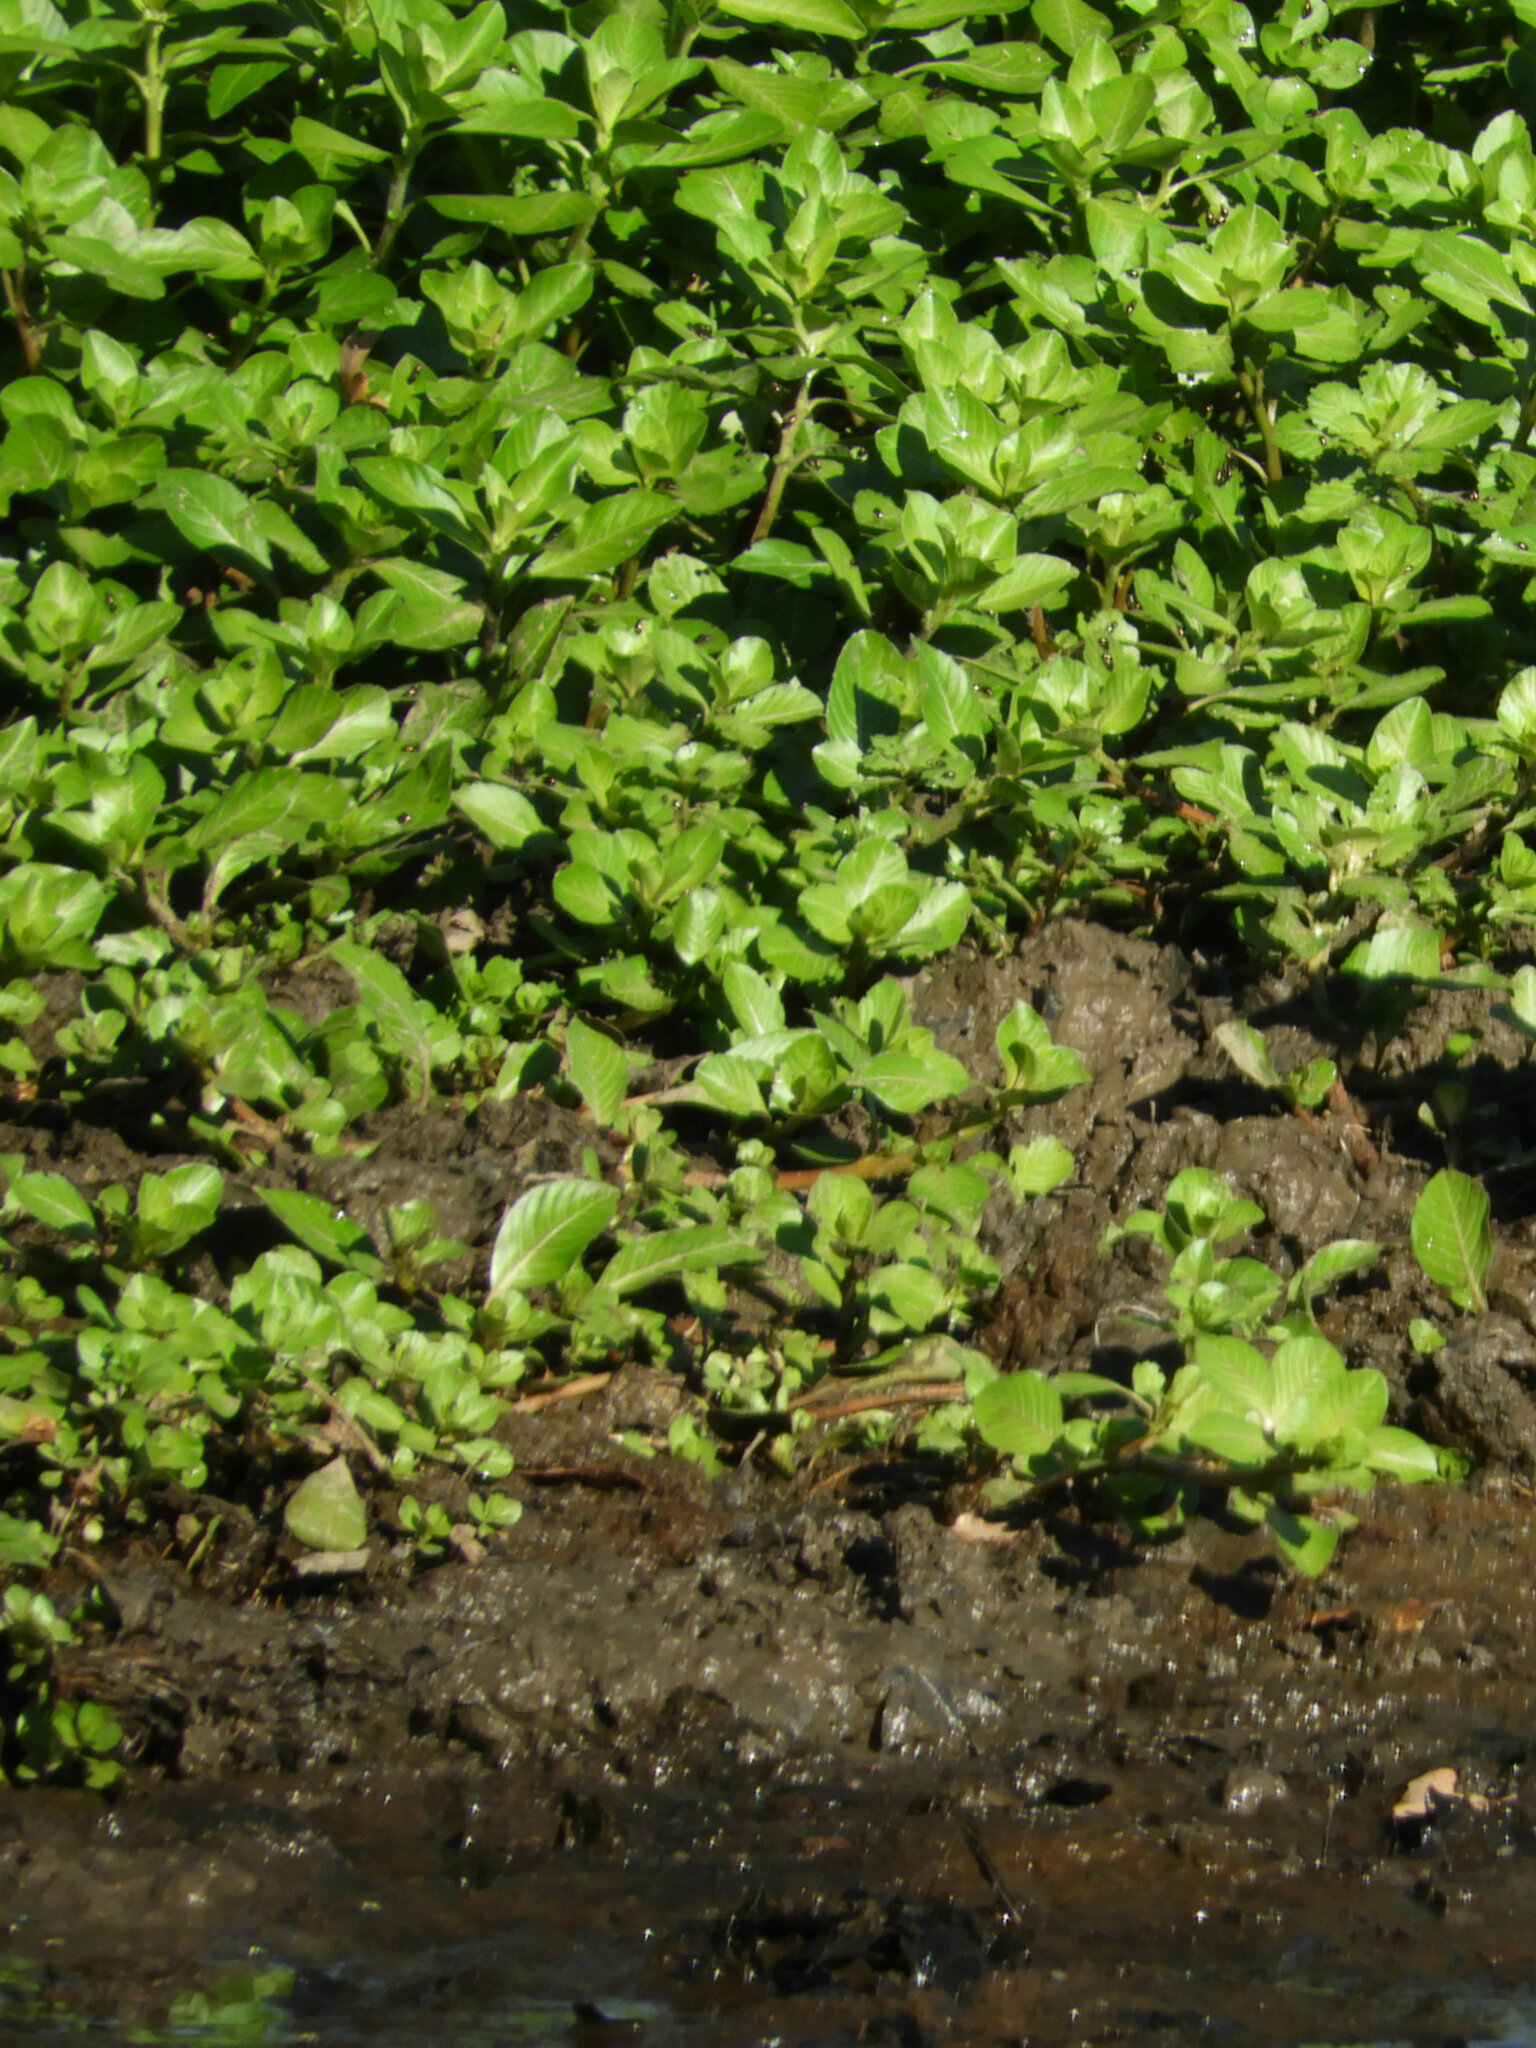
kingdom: Plantae
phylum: Tracheophyta
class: Magnoliopsida
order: Myrtales
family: Onagraceae
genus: Ludwigia
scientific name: Ludwigia peploides
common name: Floating primrose-willow
